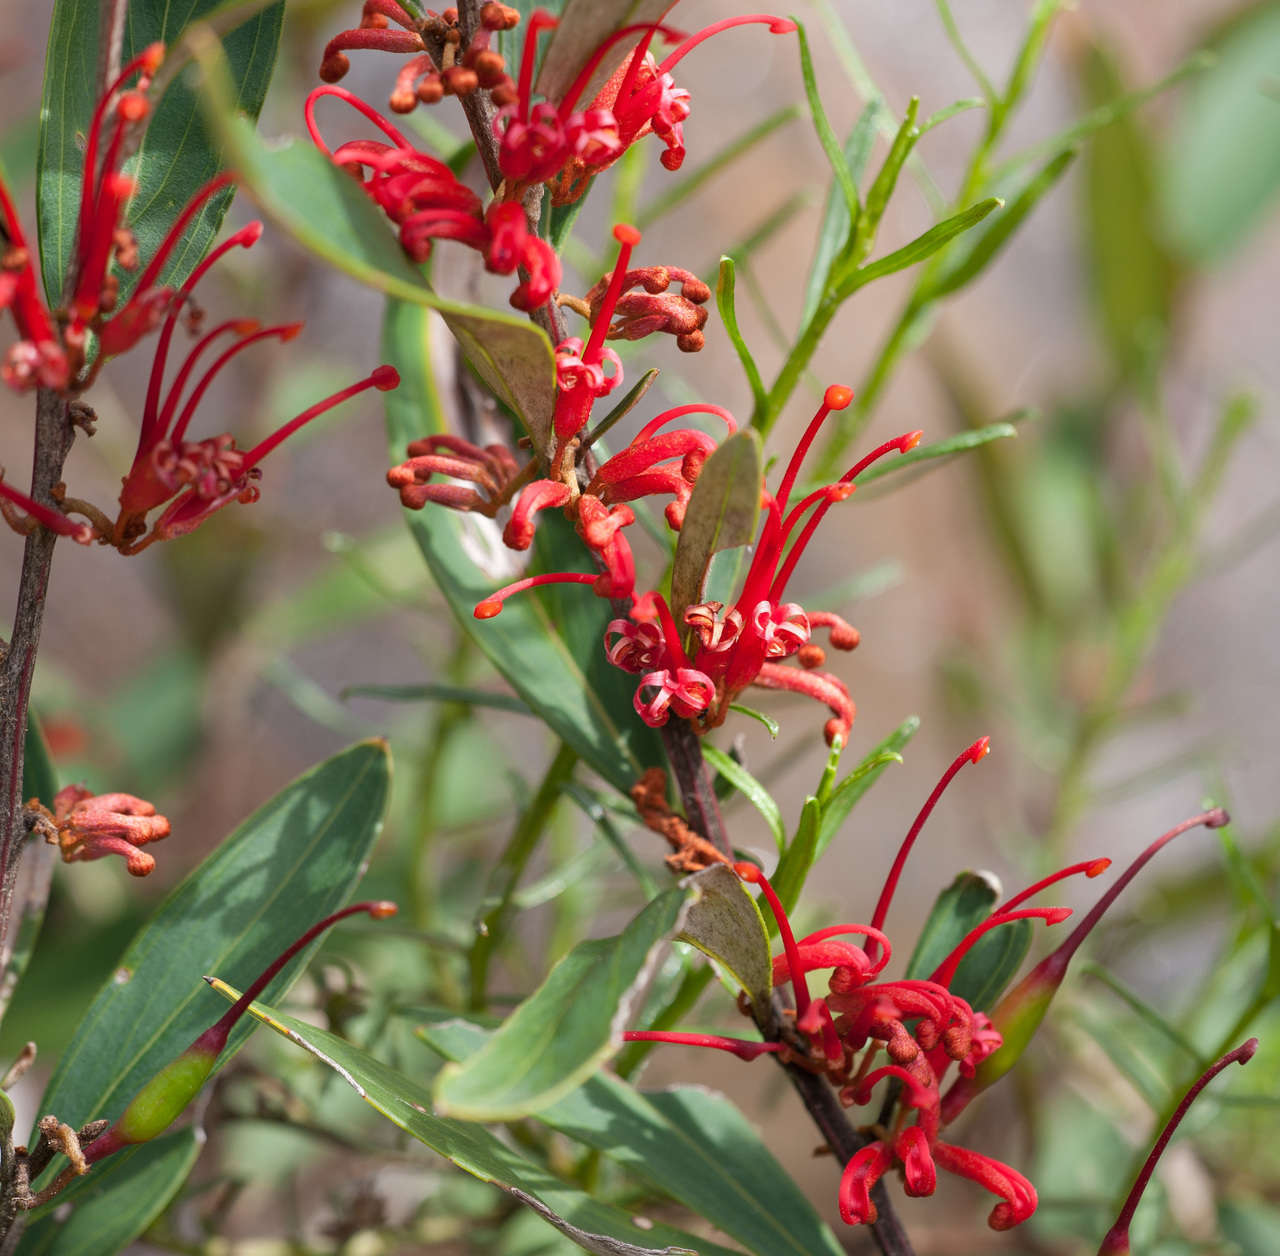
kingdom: Plantae
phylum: Tracheophyta
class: Magnoliopsida
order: Proteales
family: Proteaceae
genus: Grevillea
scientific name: Grevillea dimorpha
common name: Flame grevillea
